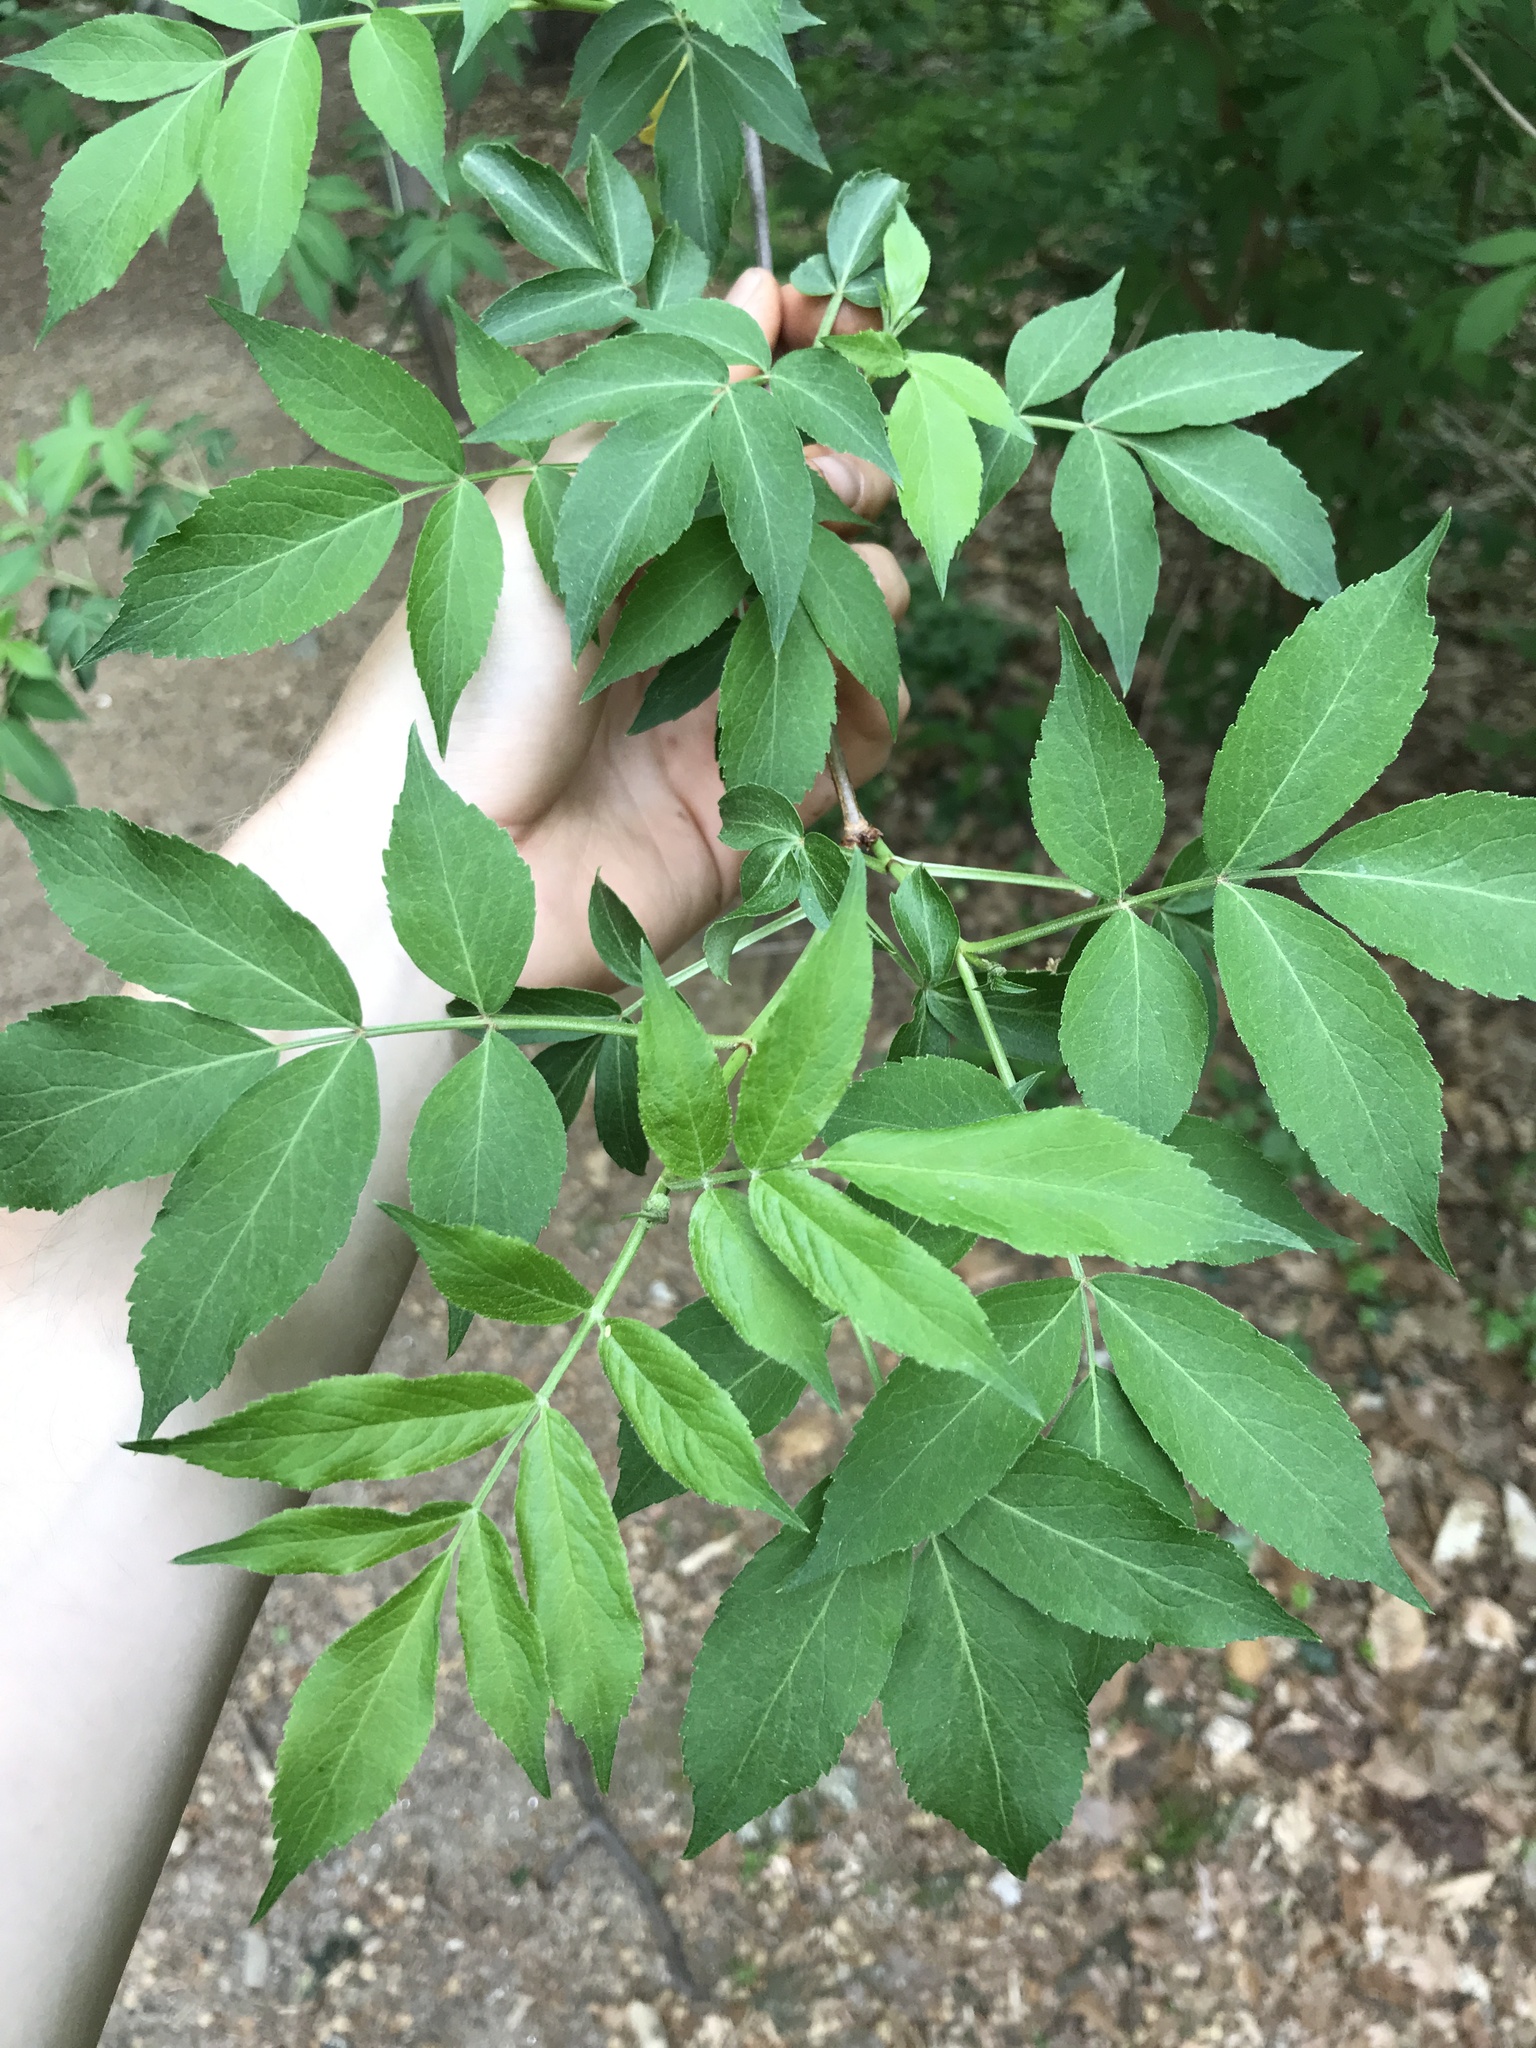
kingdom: Plantae
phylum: Tracheophyta
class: Magnoliopsida
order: Dipsacales
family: Viburnaceae
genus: Sambucus
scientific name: Sambucus canadensis
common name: American elder
